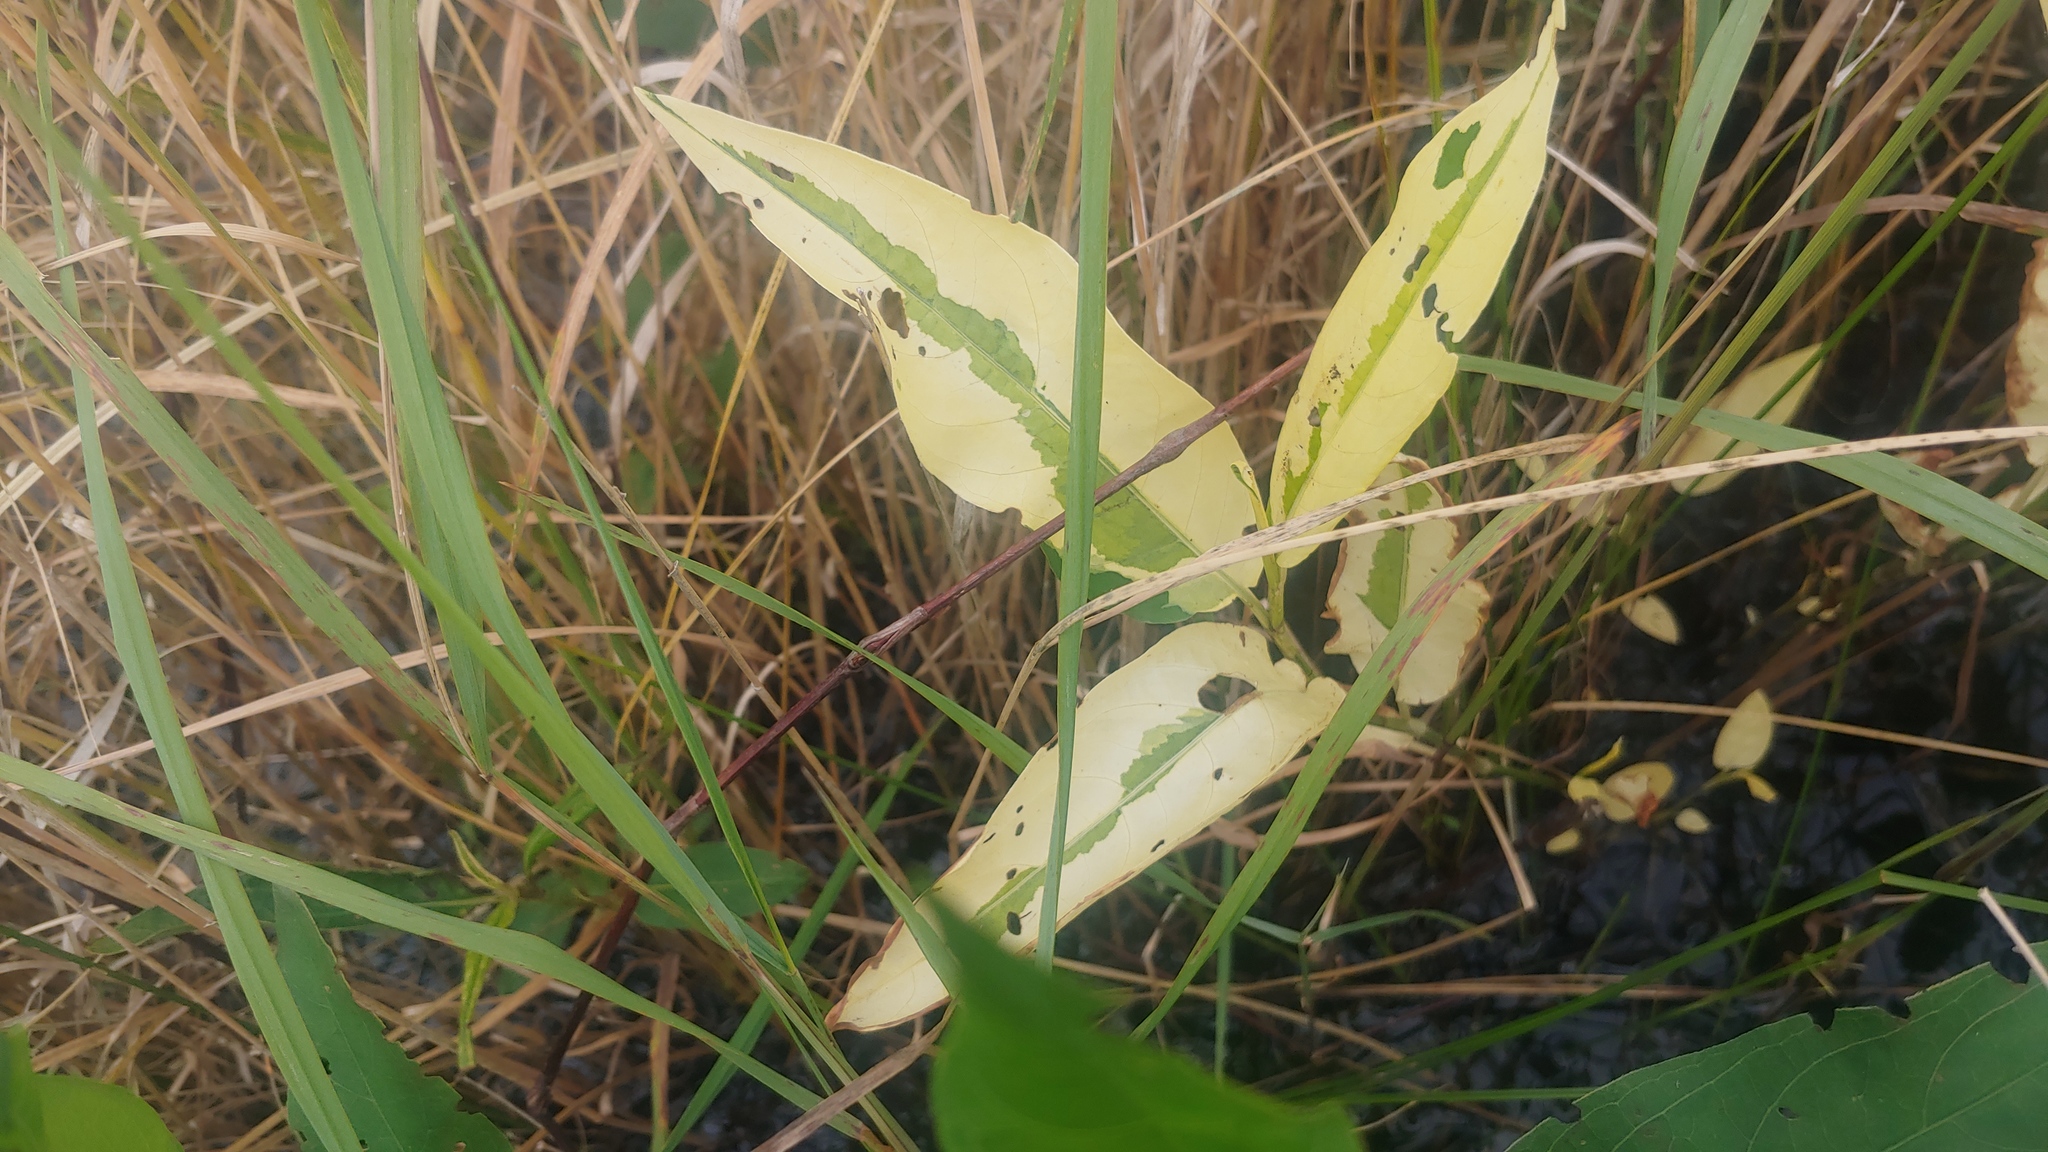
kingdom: Plantae
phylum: Tracheophyta
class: Magnoliopsida
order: Caryophyllales
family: Polygonaceae
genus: Persicaria
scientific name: Persicaria amphibia
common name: Amphibious bistort
